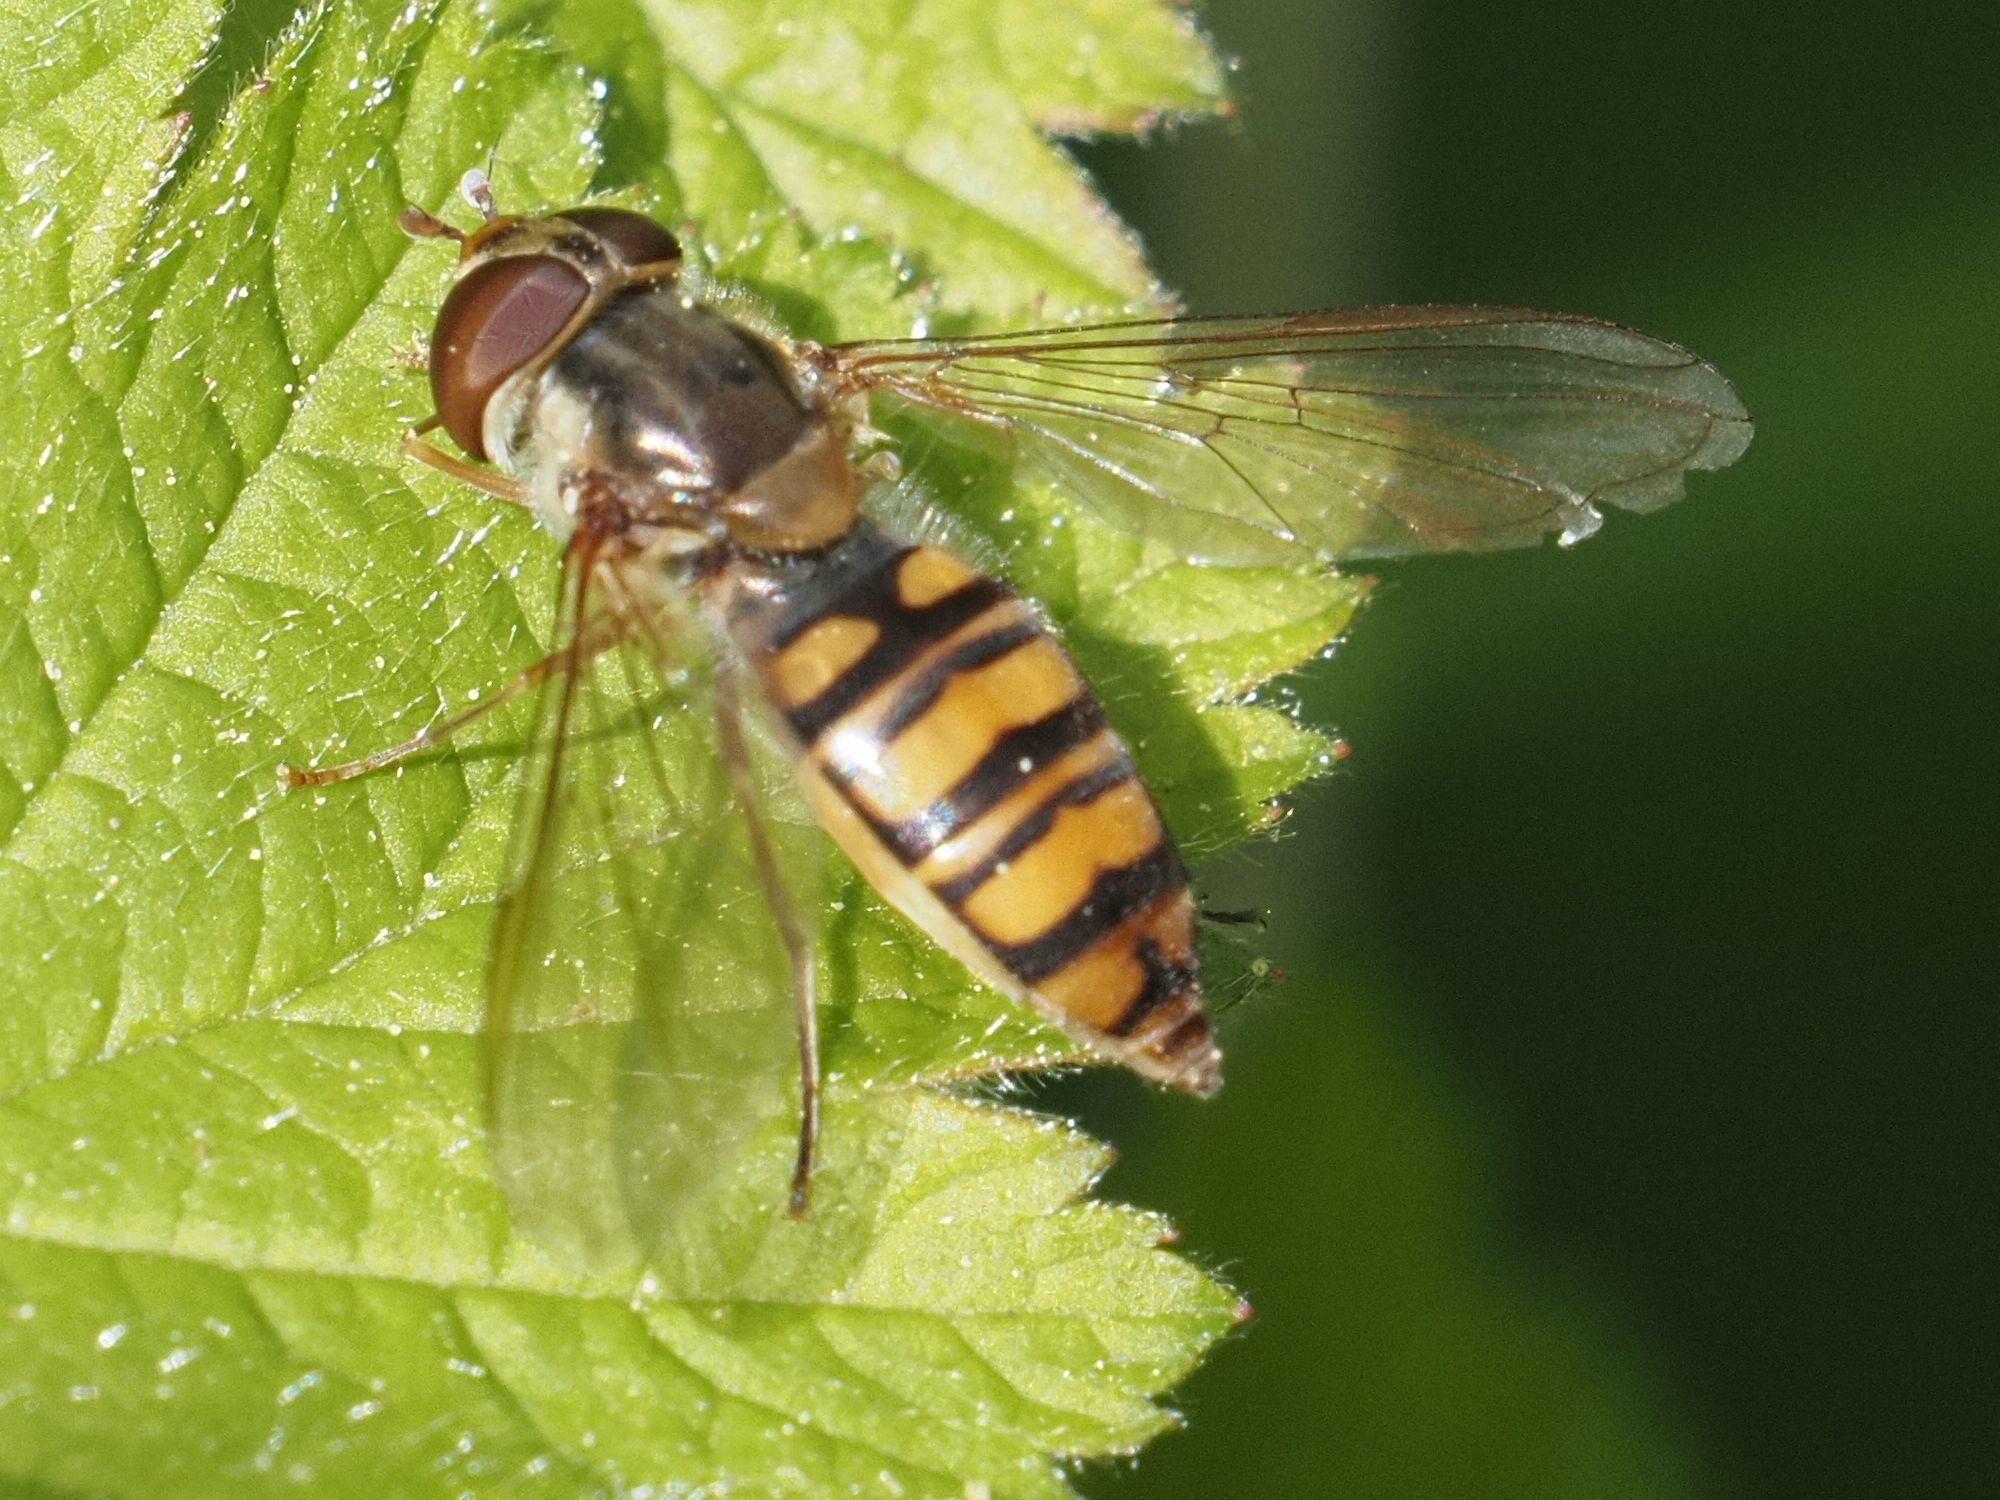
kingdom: Animalia
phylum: Arthropoda
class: Insecta
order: Diptera
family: Syrphidae
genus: Episyrphus
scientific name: Episyrphus balteatus
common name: Marmalade hoverfly
